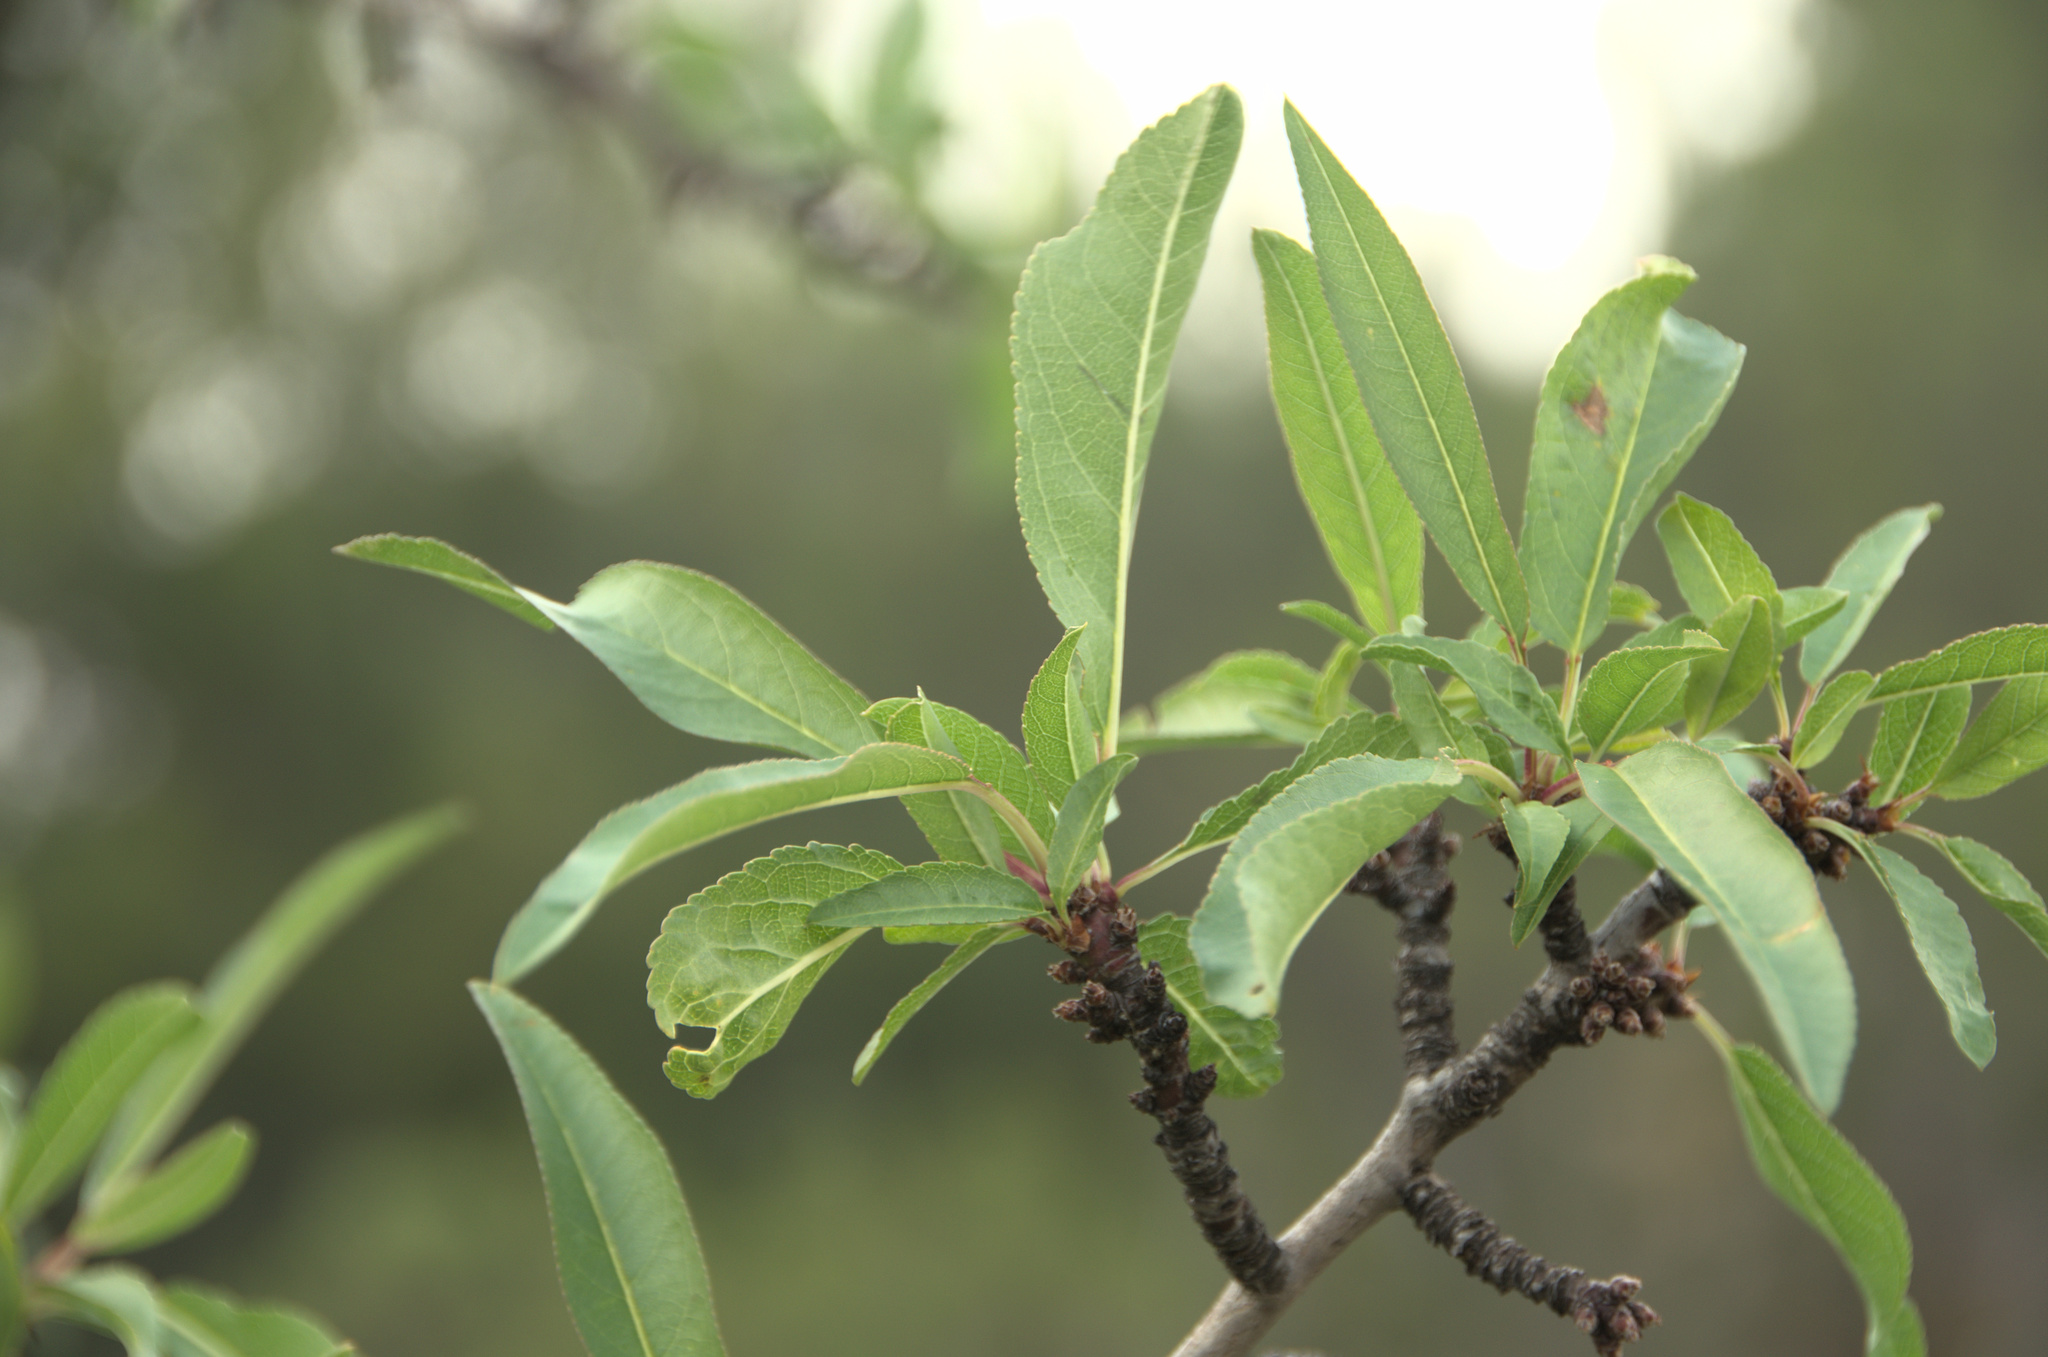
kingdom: Plantae
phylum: Tracheophyta
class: Magnoliopsida
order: Rosales
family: Rosaceae
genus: Prunus
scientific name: Prunus amygdalus
